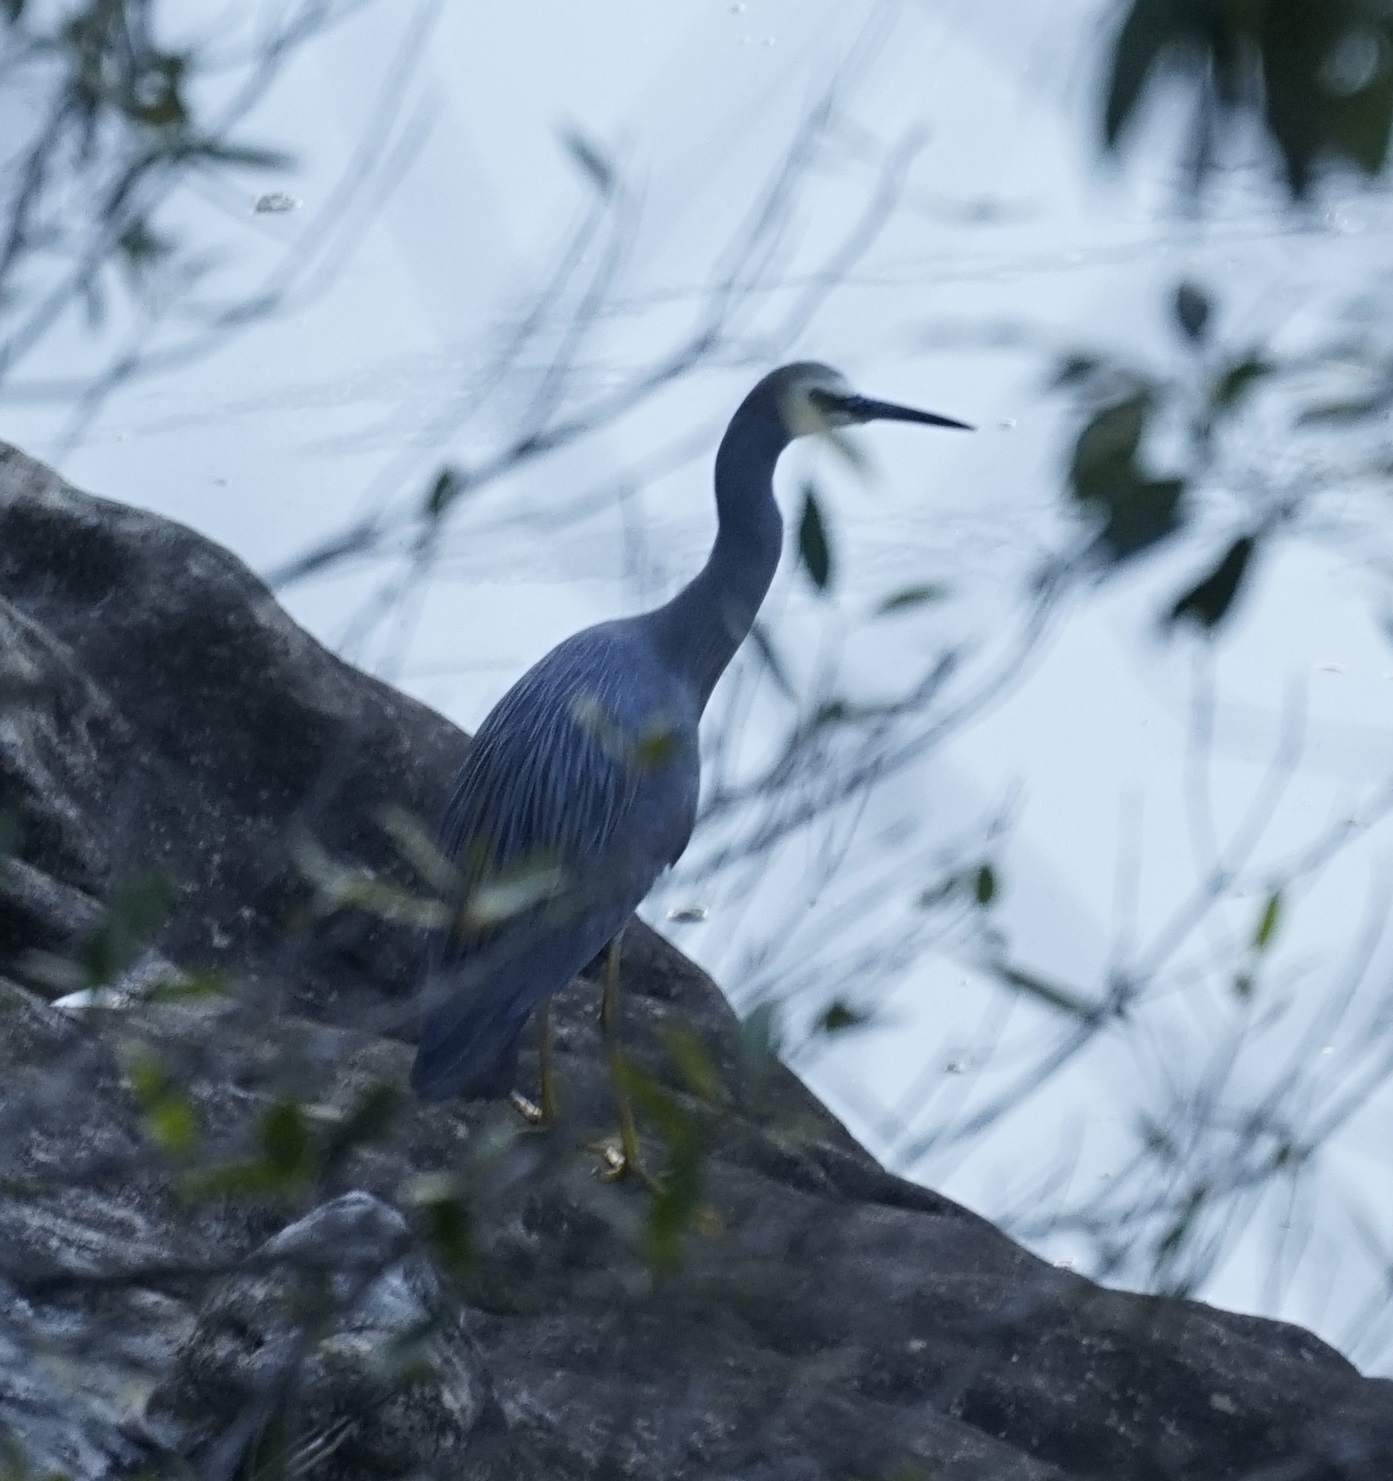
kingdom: Animalia
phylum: Chordata
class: Aves
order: Pelecaniformes
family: Ardeidae
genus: Egretta
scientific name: Egretta novaehollandiae
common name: White-faced heron
